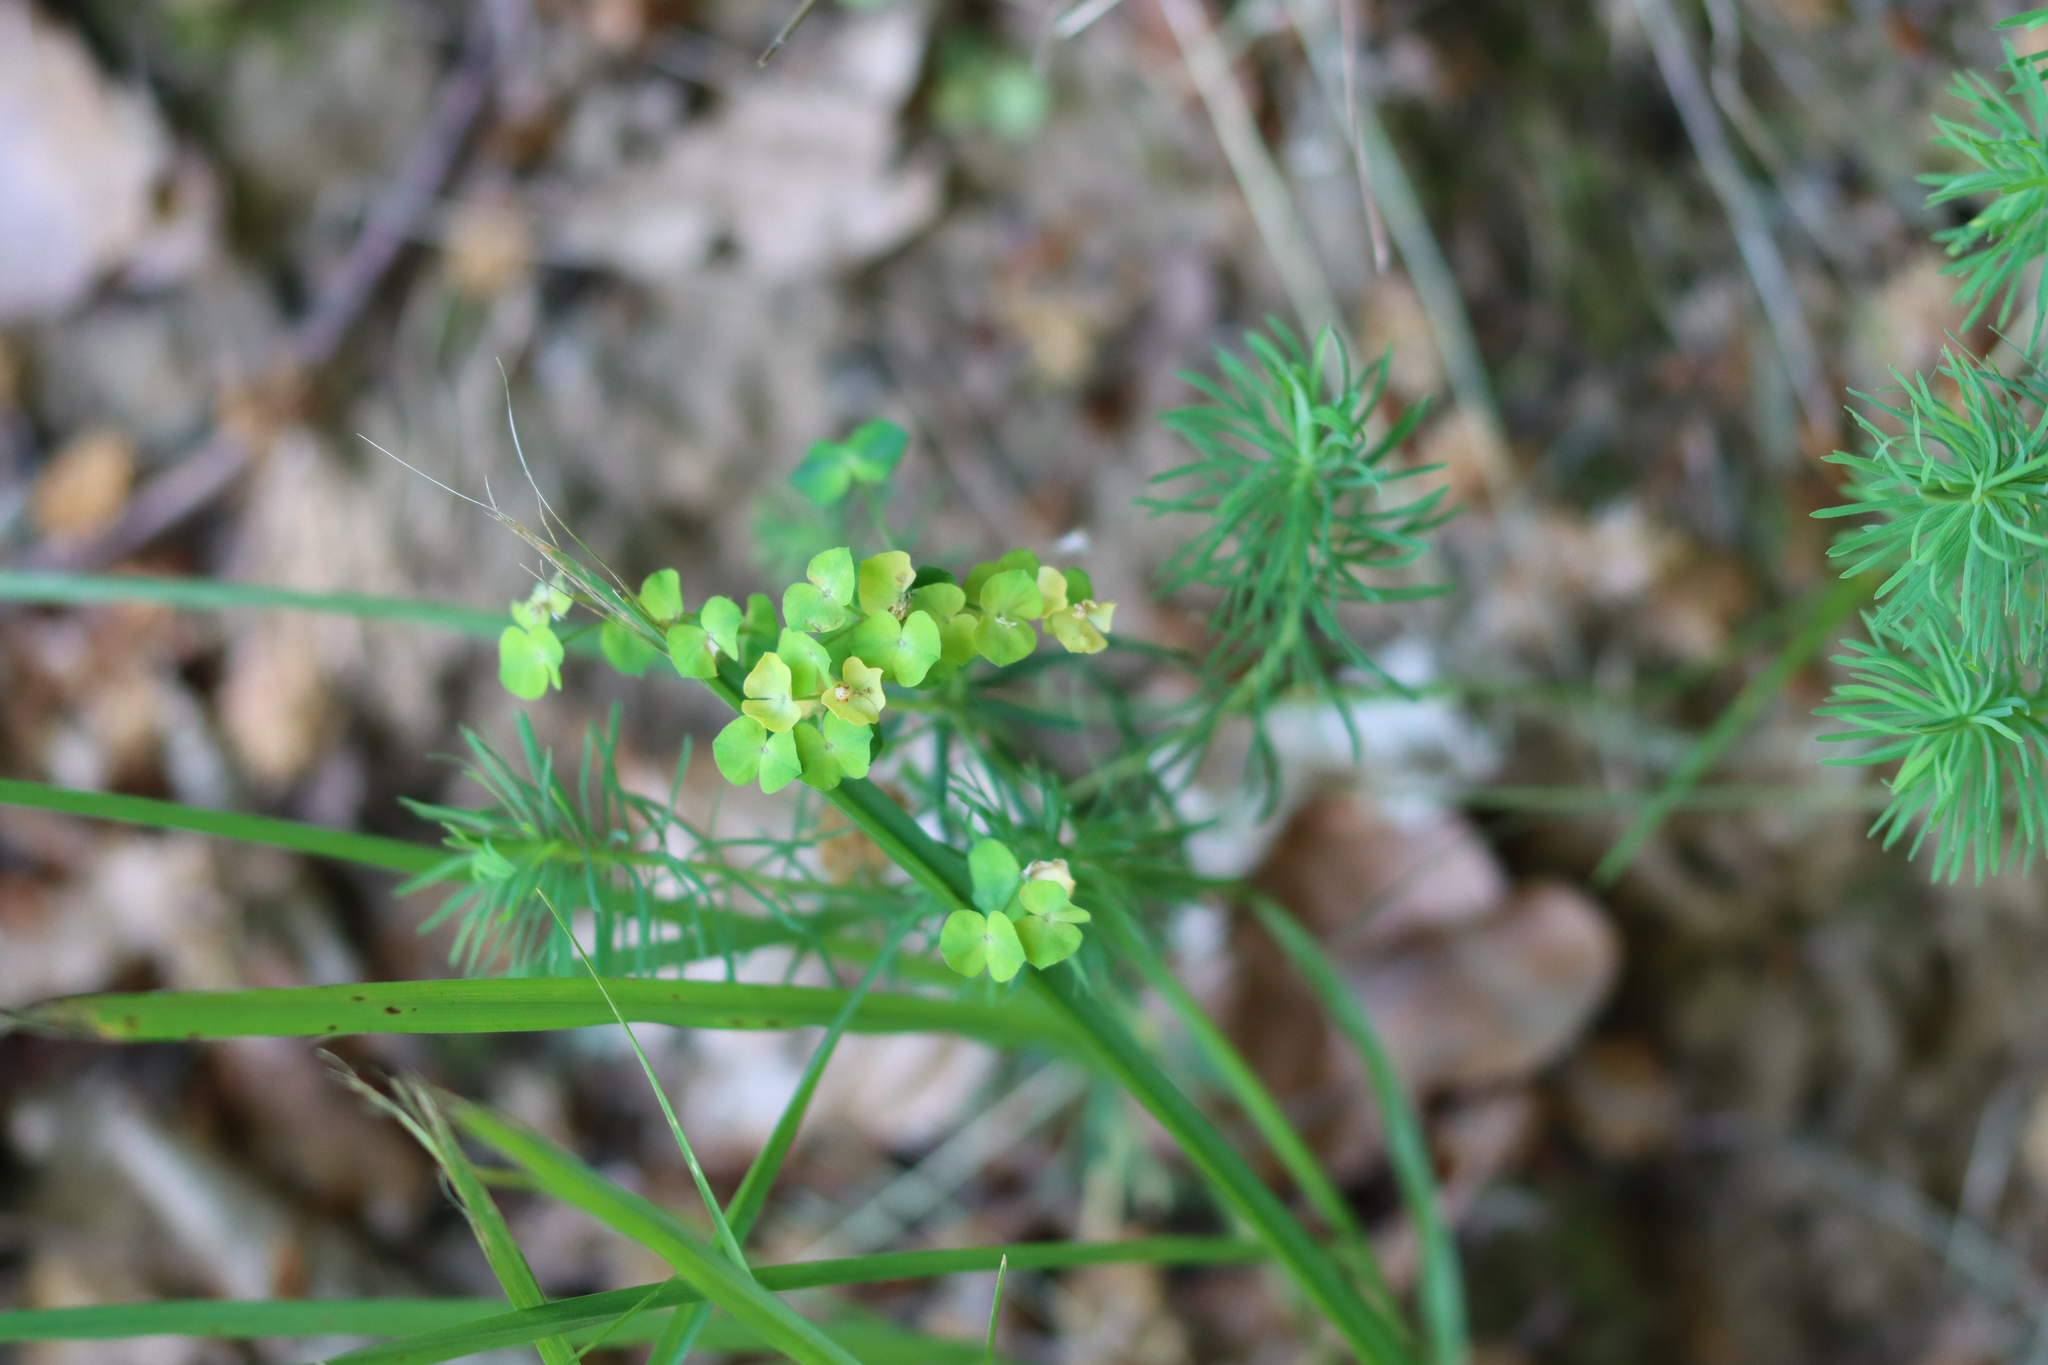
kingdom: Plantae
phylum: Tracheophyta
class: Magnoliopsida
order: Malpighiales
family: Euphorbiaceae
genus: Euphorbia
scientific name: Euphorbia cyparissias
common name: Cypress spurge
